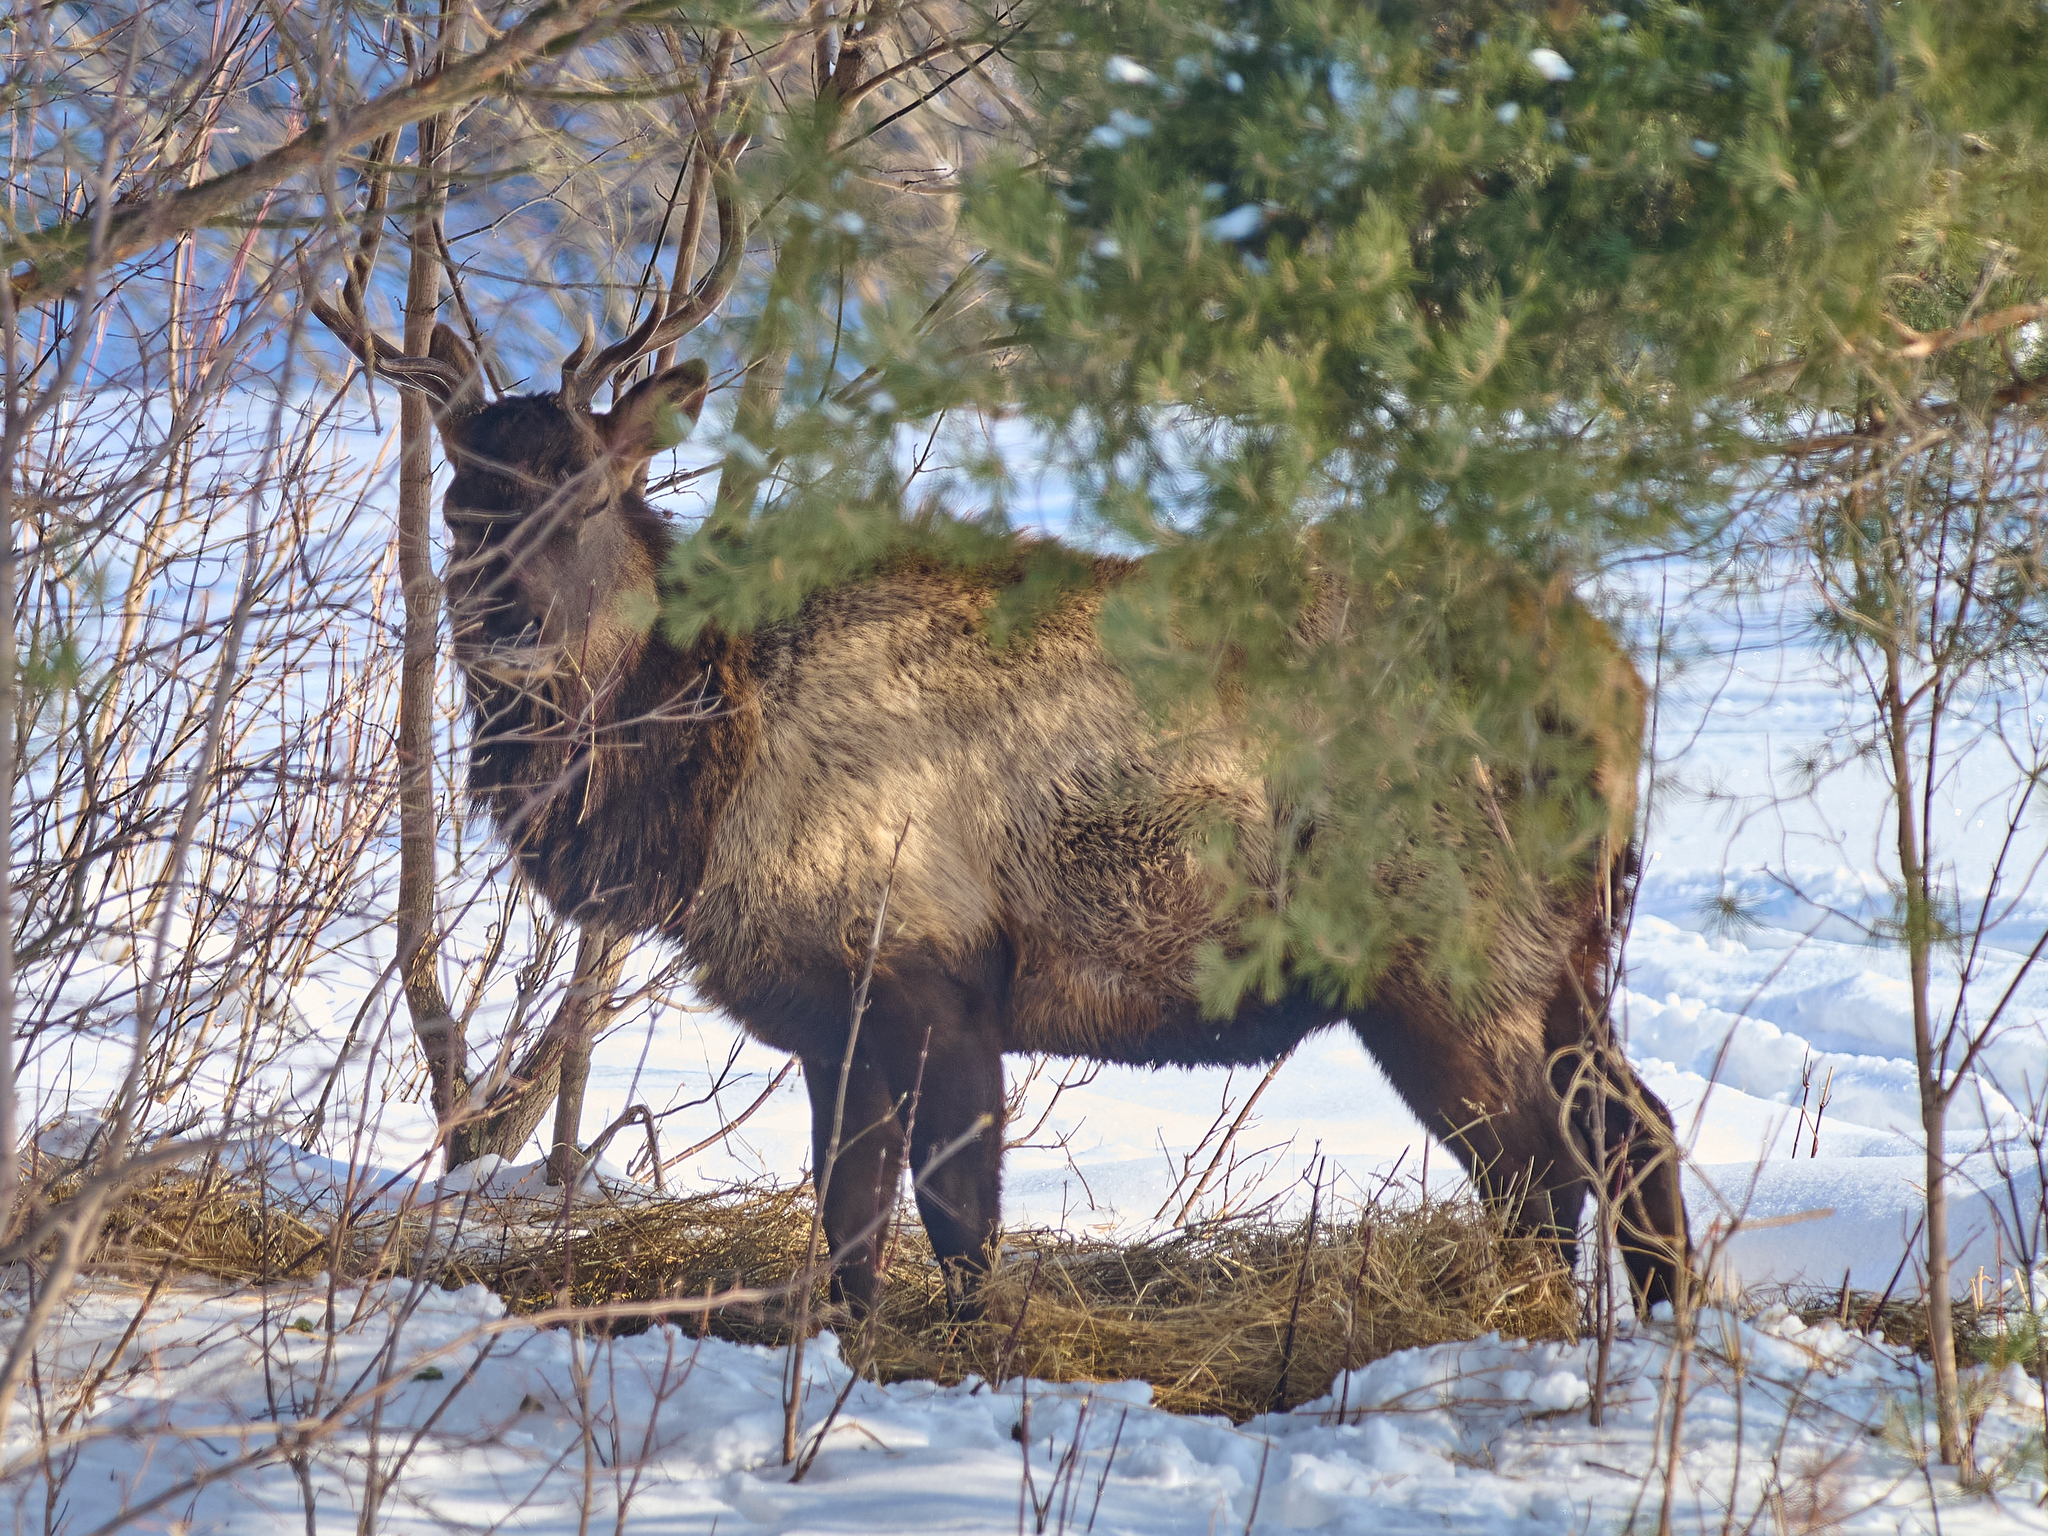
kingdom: Animalia
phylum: Chordata
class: Mammalia
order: Artiodactyla
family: Cervidae
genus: Cervus
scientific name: Cervus elaphus
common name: Red deer
